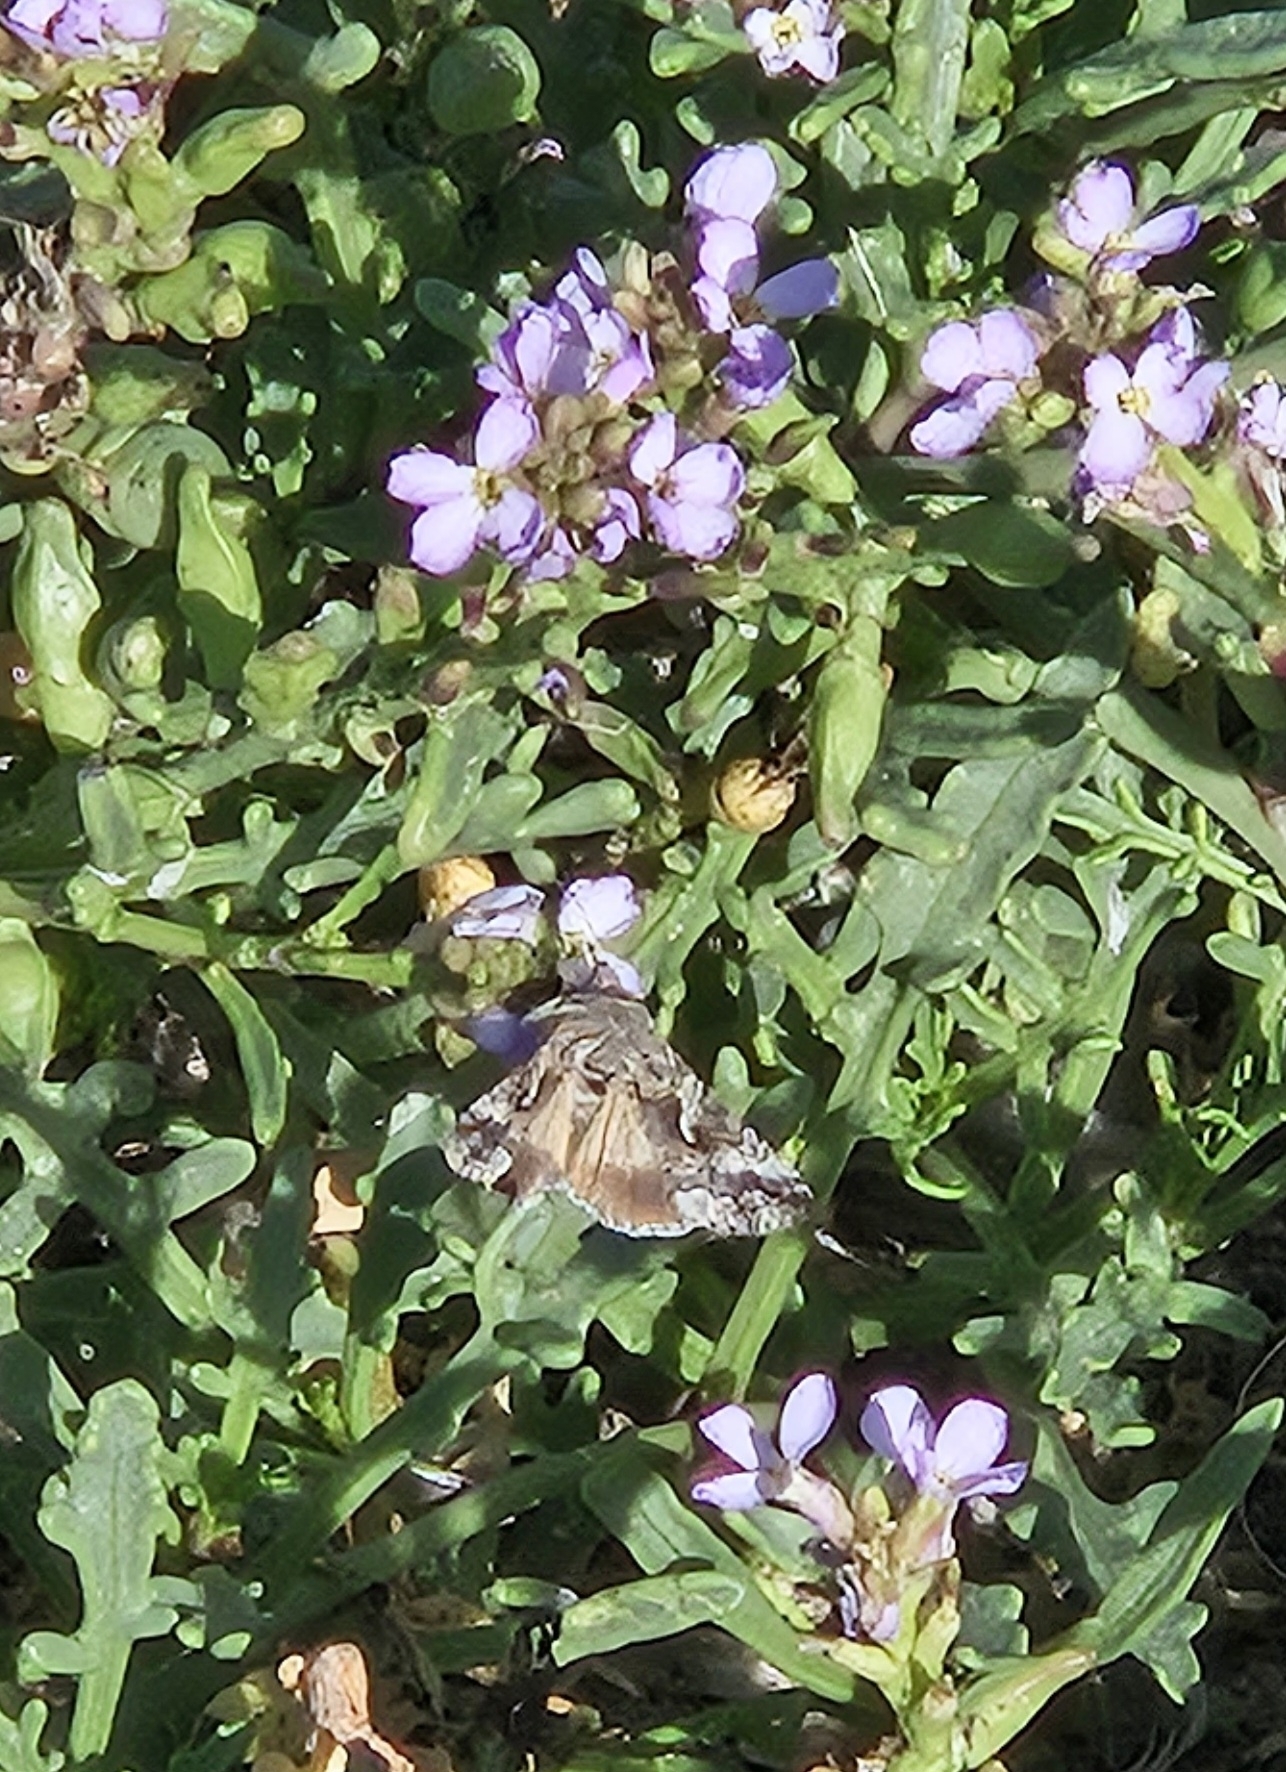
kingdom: Animalia
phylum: Arthropoda
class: Insecta
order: Lepidoptera
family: Noctuidae
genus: Autographa
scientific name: Autographa californica
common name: Alfalfa looper
